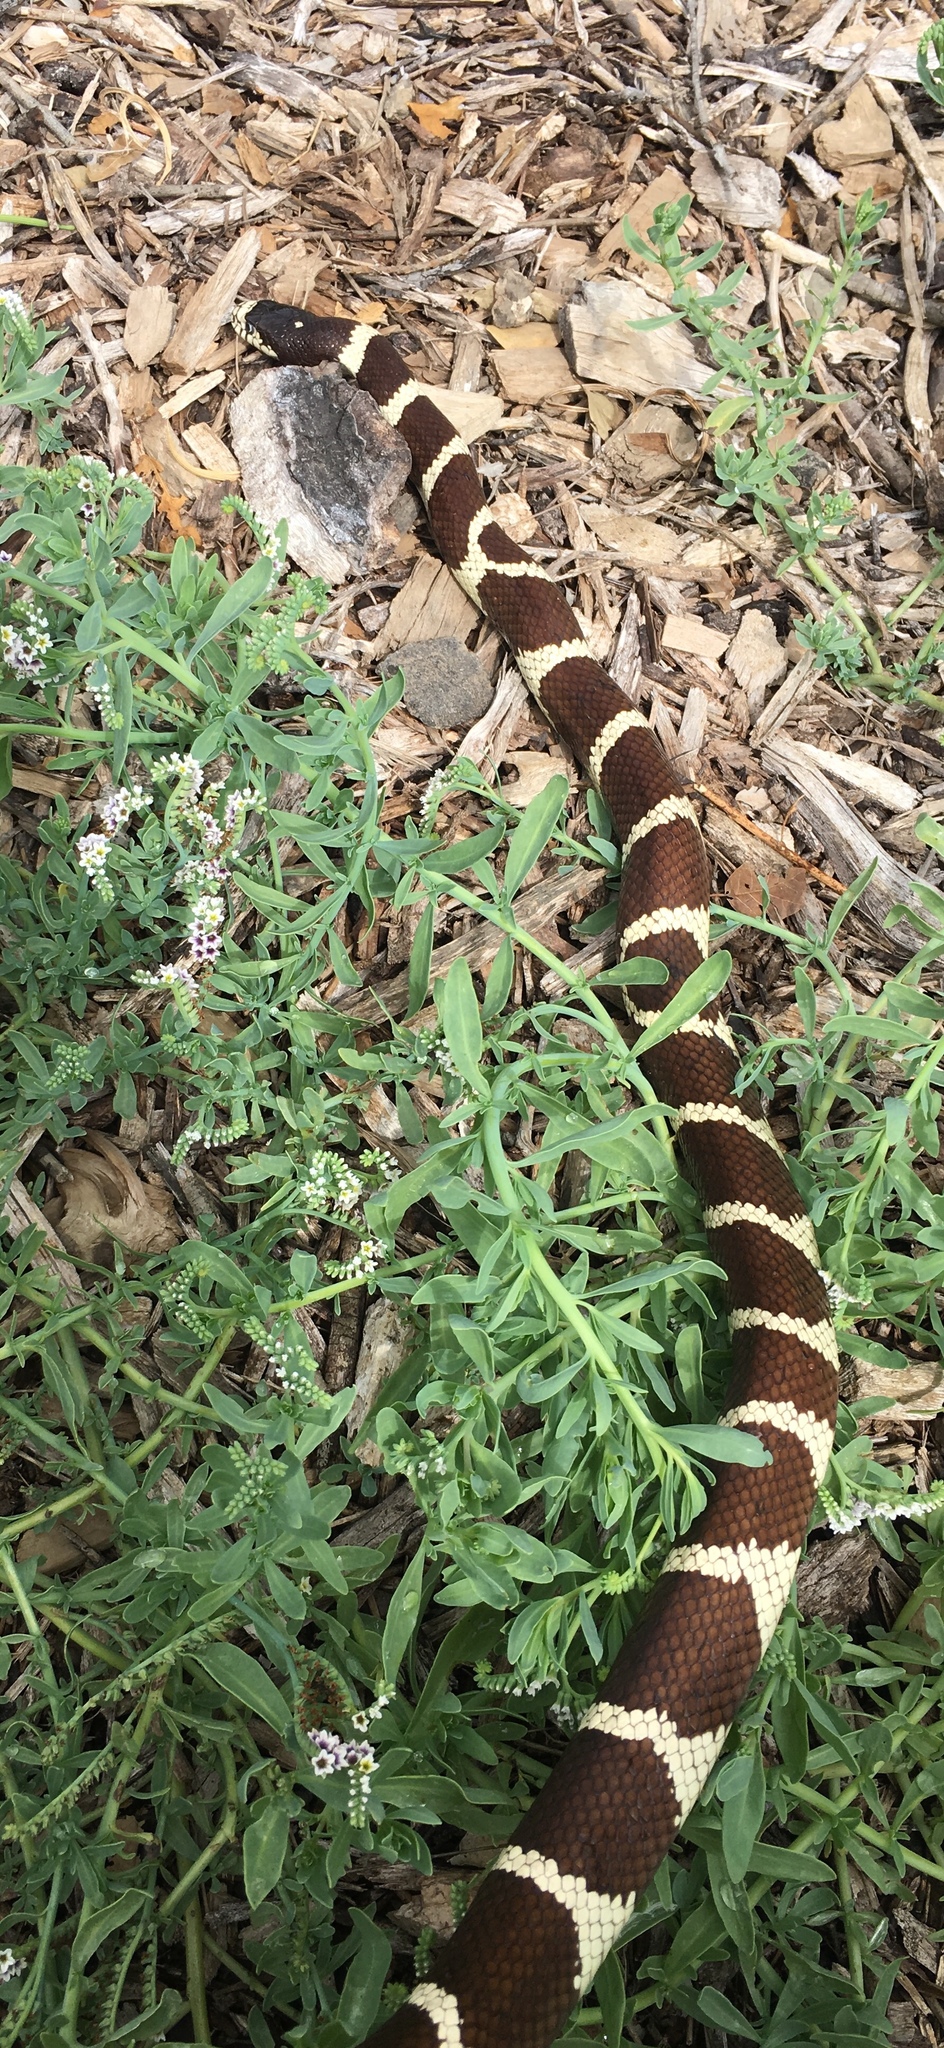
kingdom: Animalia
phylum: Chordata
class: Squamata
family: Colubridae
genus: Lampropeltis
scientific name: Lampropeltis californiae
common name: California kingsnake
